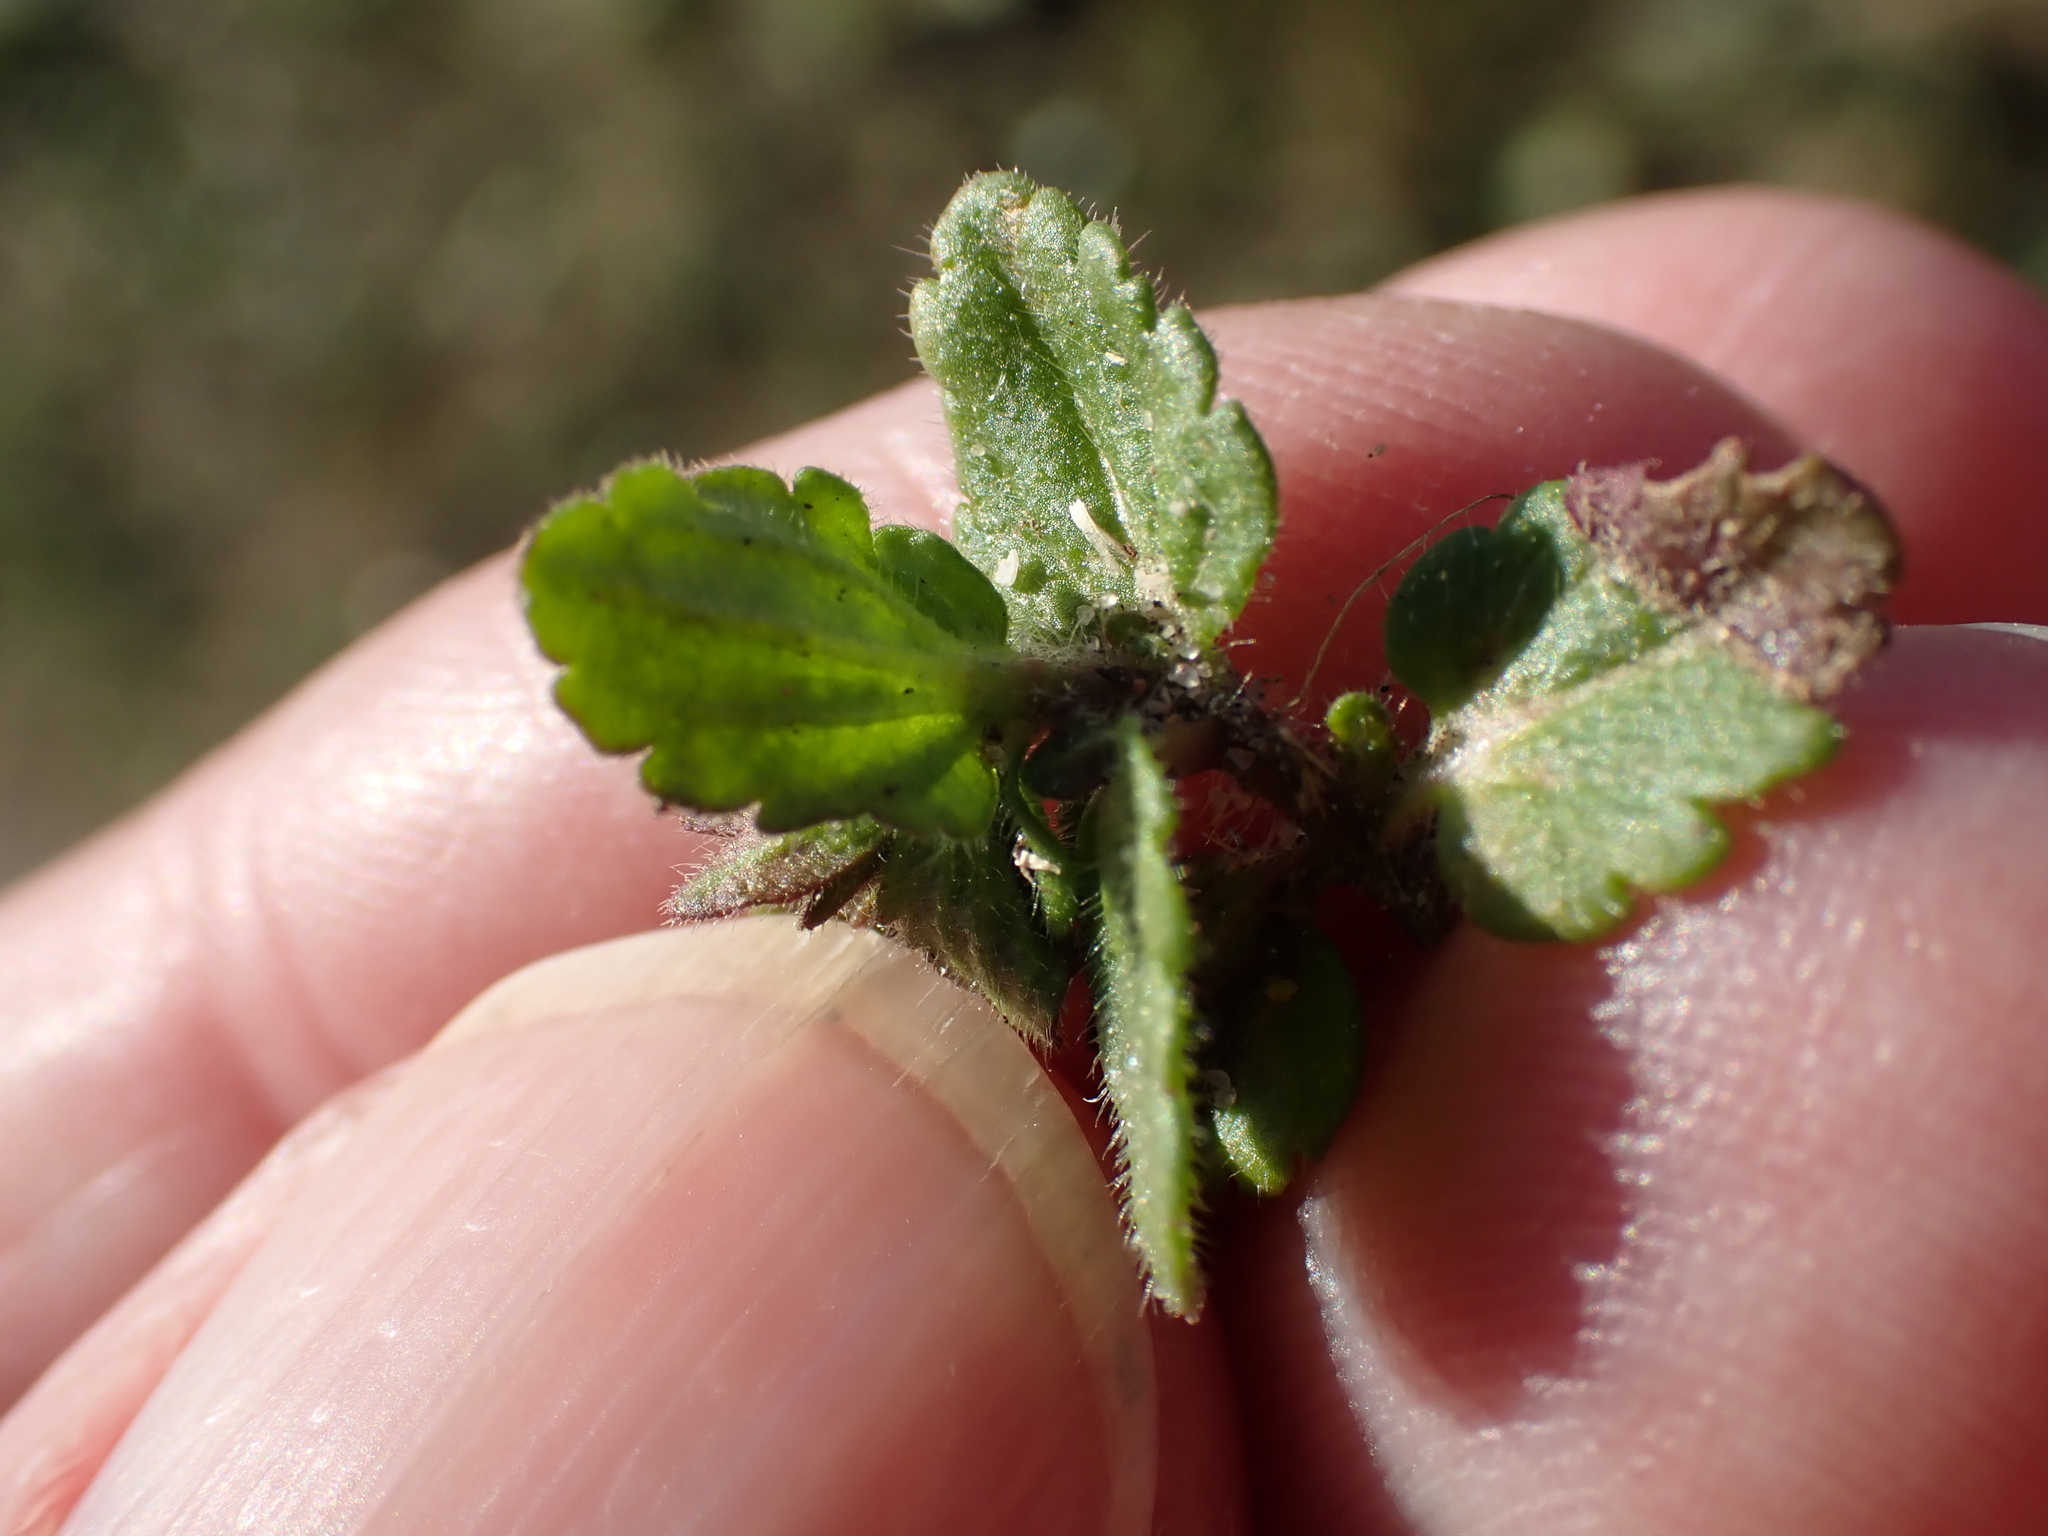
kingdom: Plantae
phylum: Tracheophyta
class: Magnoliopsida
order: Lamiales
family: Plantaginaceae
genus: Veronica
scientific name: Veronica arvensis
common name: Corn speedwell
